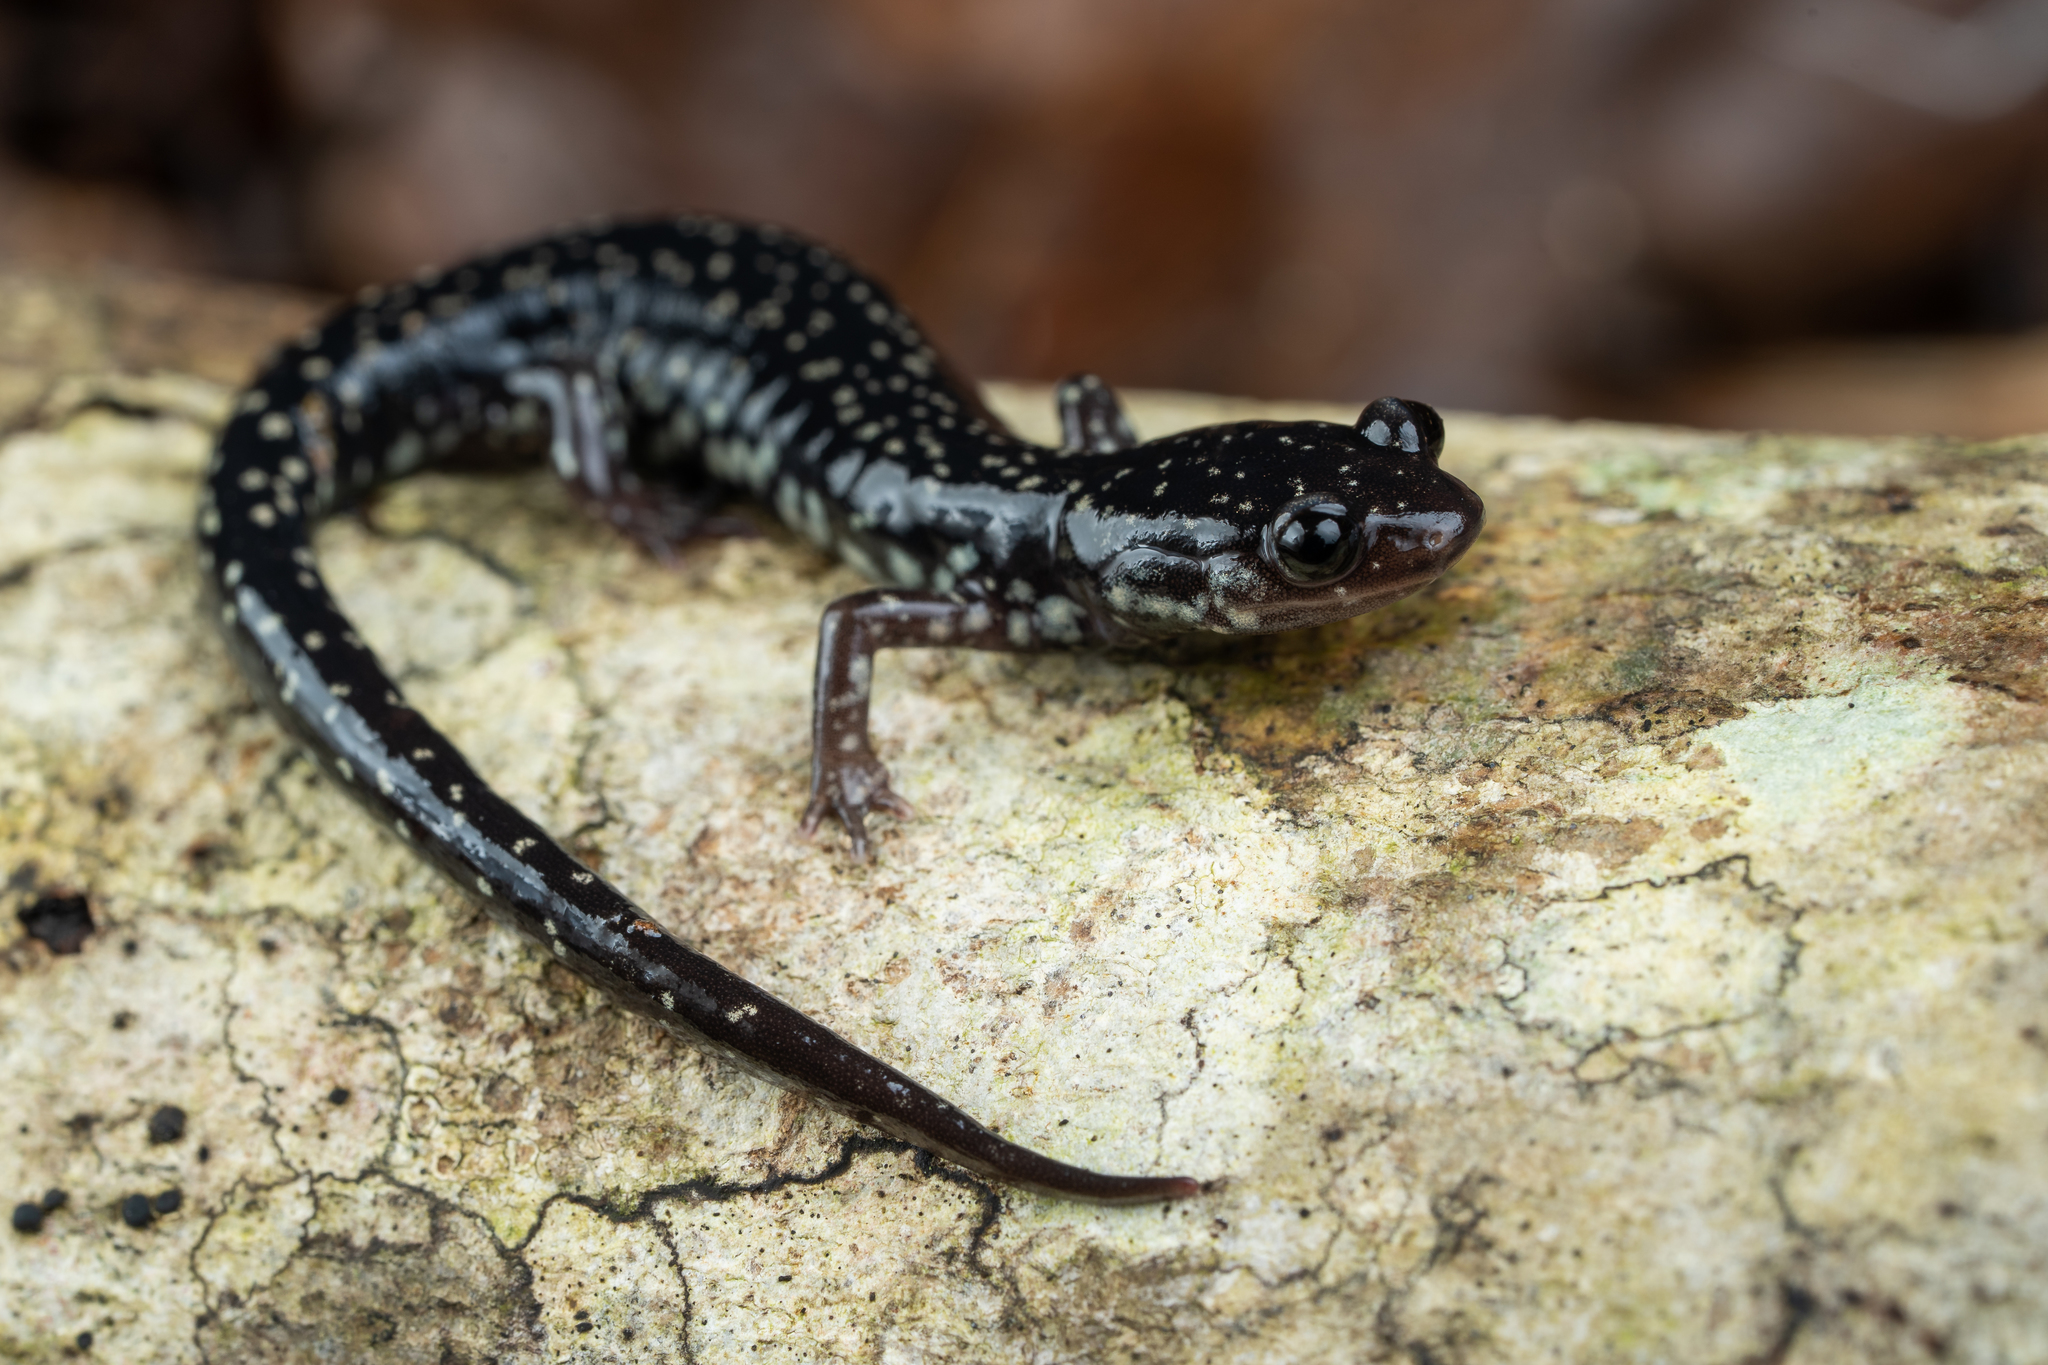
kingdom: Animalia
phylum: Chordata
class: Amphibia
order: Caudata
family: Plethodontidae
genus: Plethodon
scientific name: Plethodon mississippi
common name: Mississippi slimy salamander
